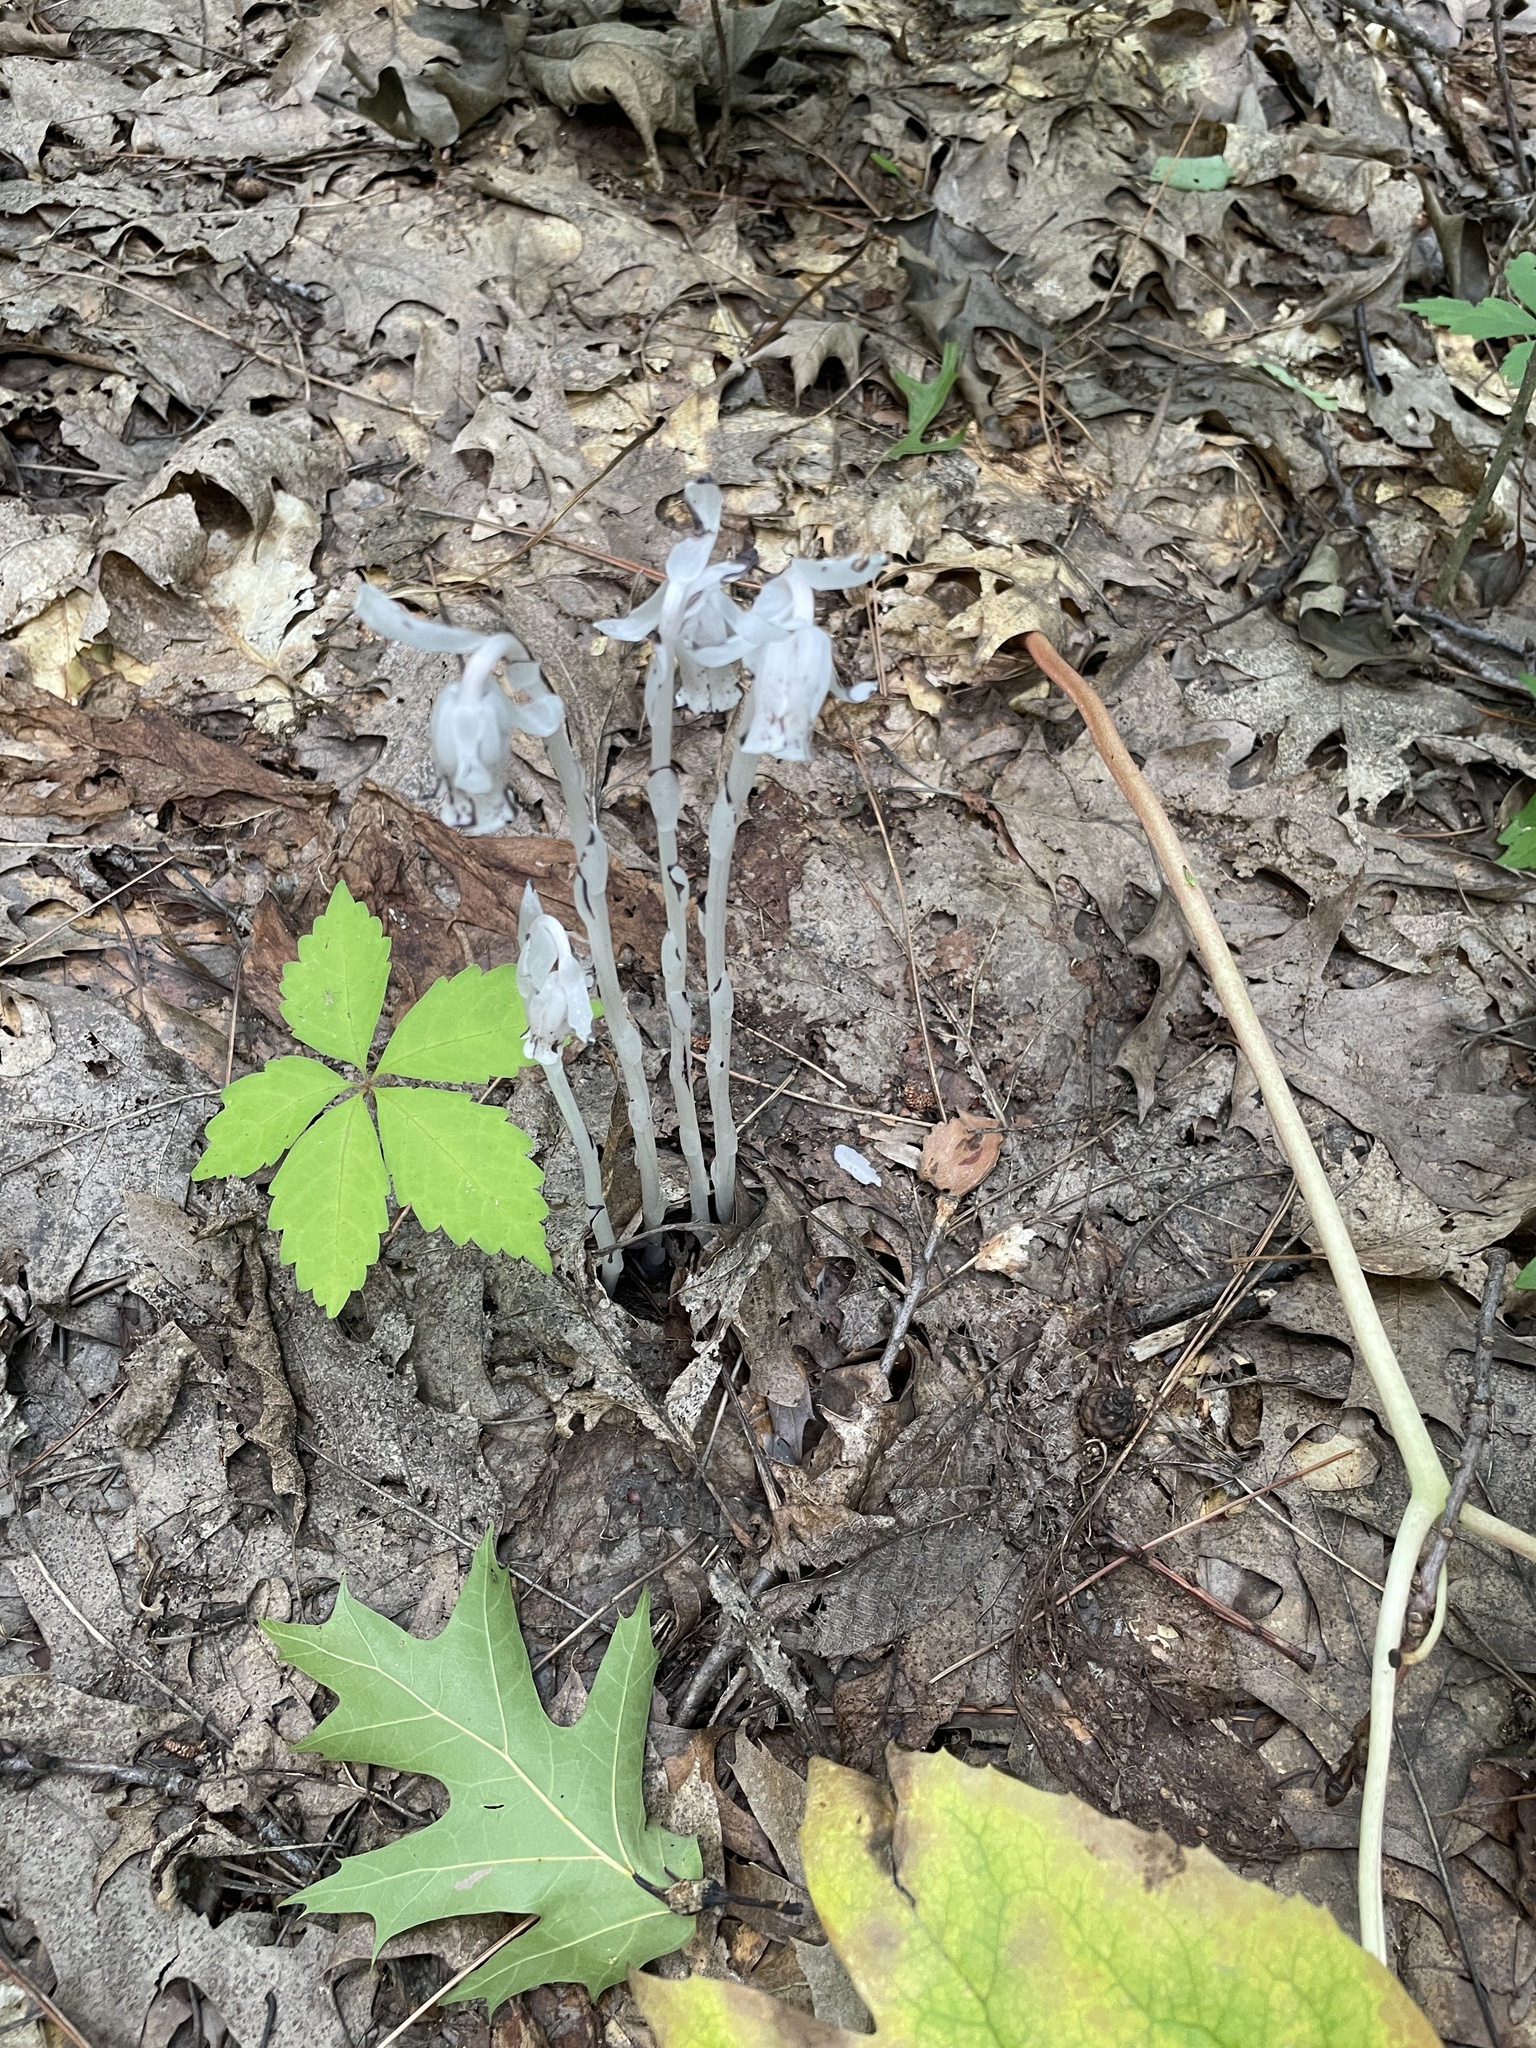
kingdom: Plantae
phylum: Tracheophyta
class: Magnoliopsida
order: Ericales
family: Ericaceae
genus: Monotropa
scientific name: Monotropa uniflora
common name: Convulsion root
